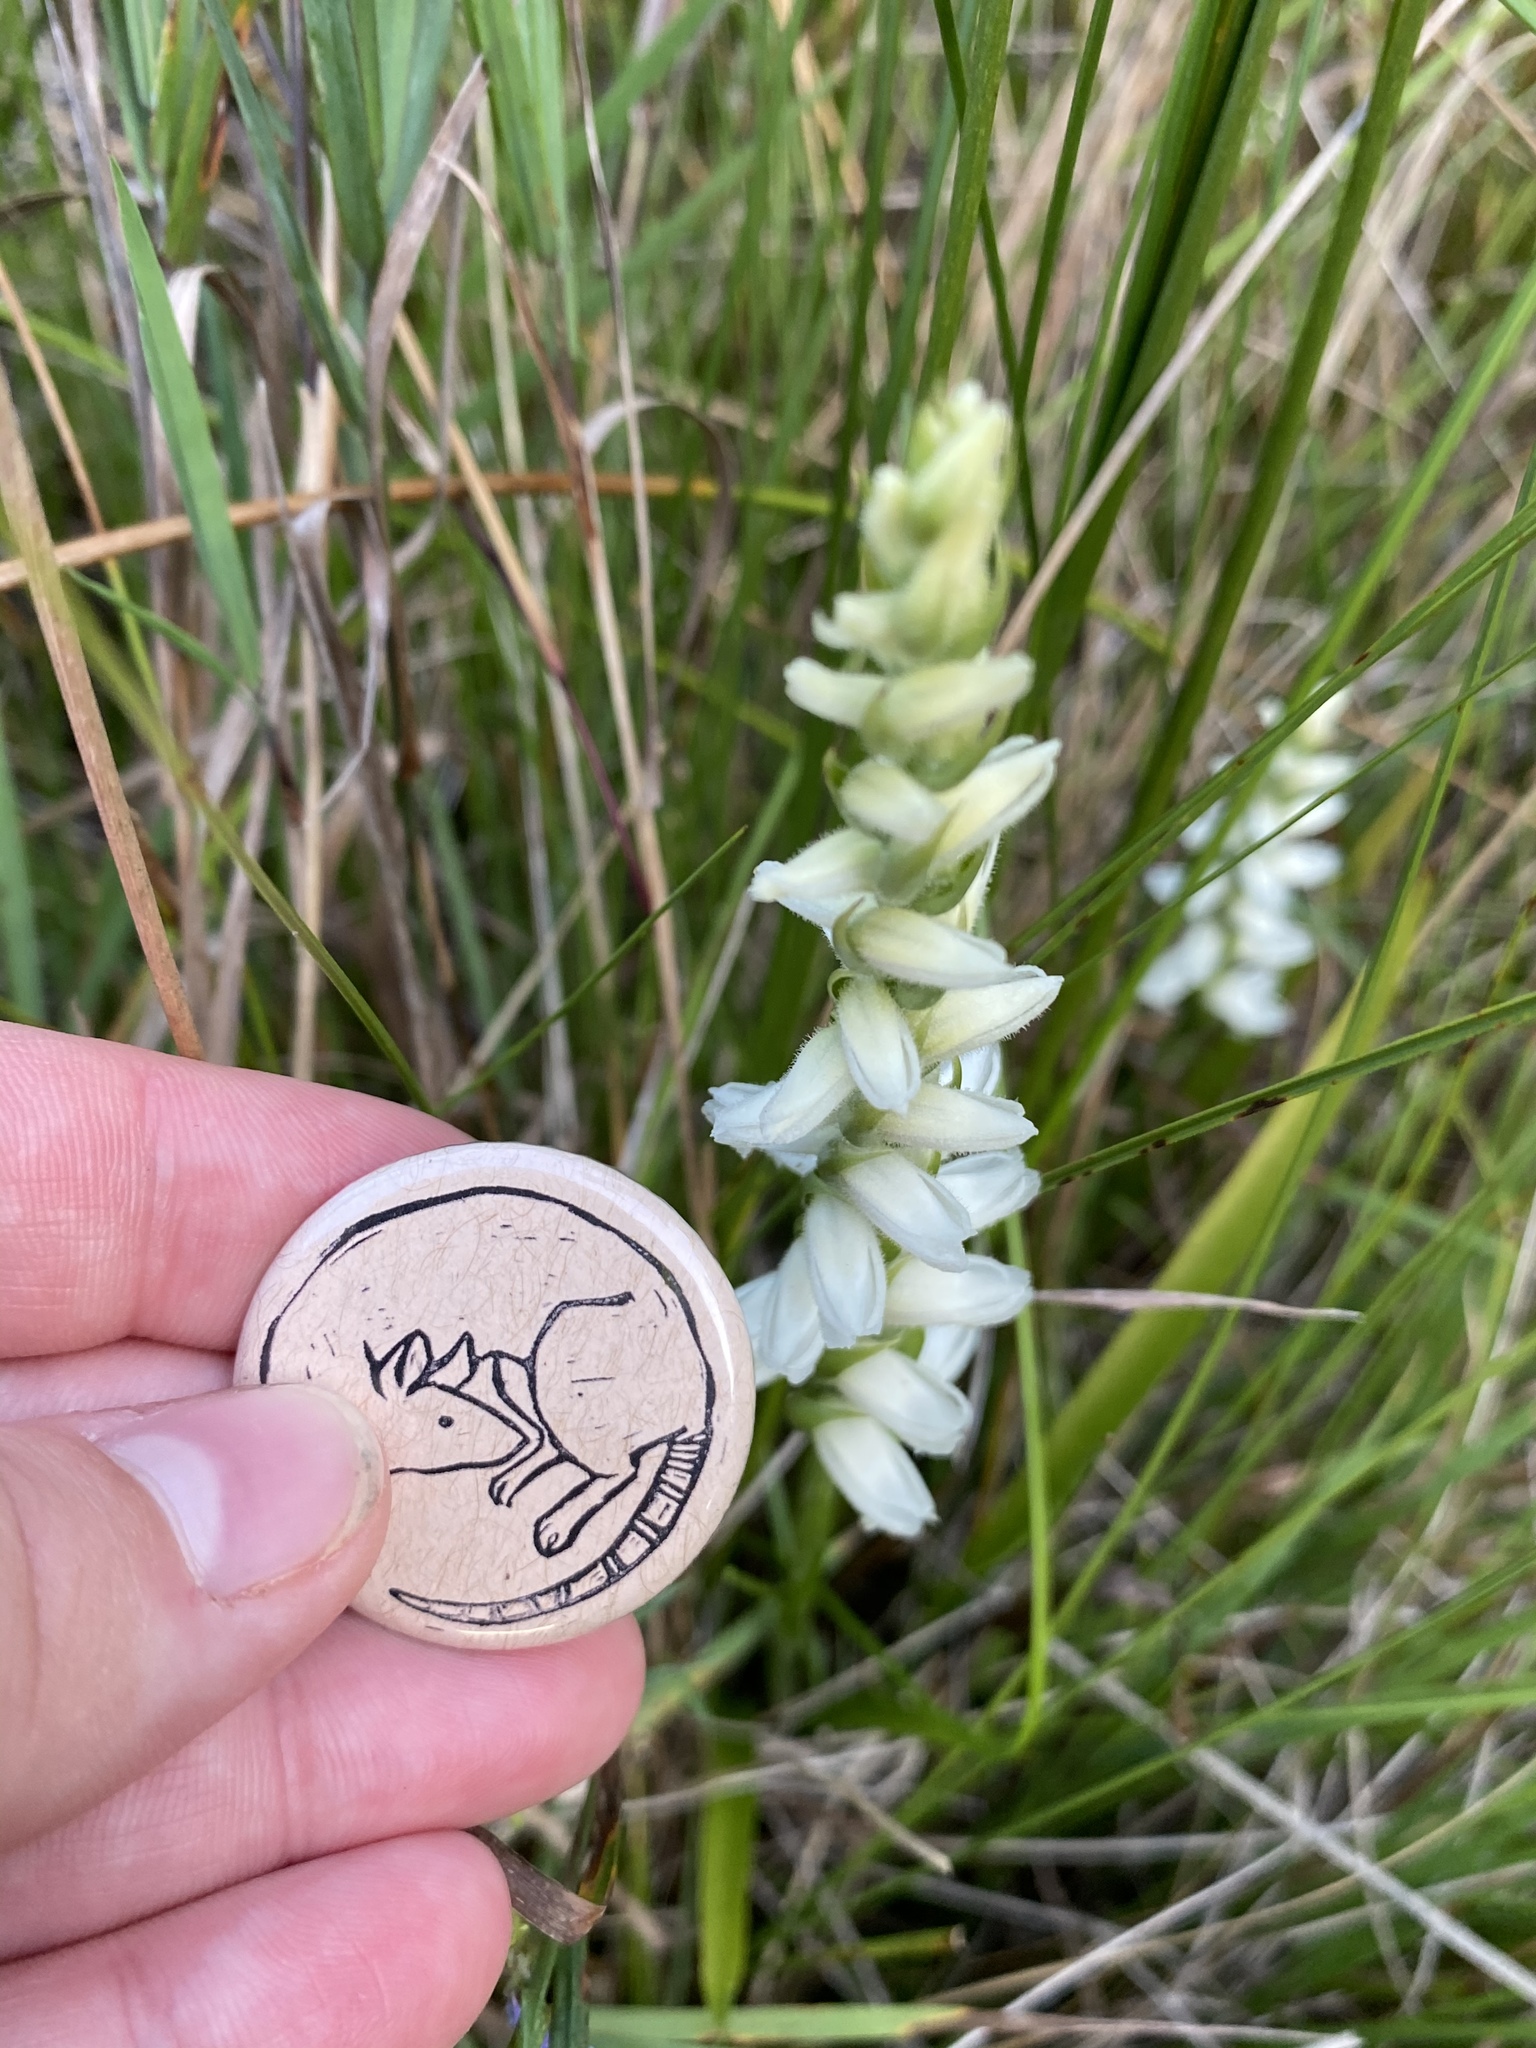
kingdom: Plantae
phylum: Tracheophyta
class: Liliopsida
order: Asparagales
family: Orchidaceae
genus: Spiranthes
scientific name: Spiranthes cernua
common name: Dropping ladies'-tresses
